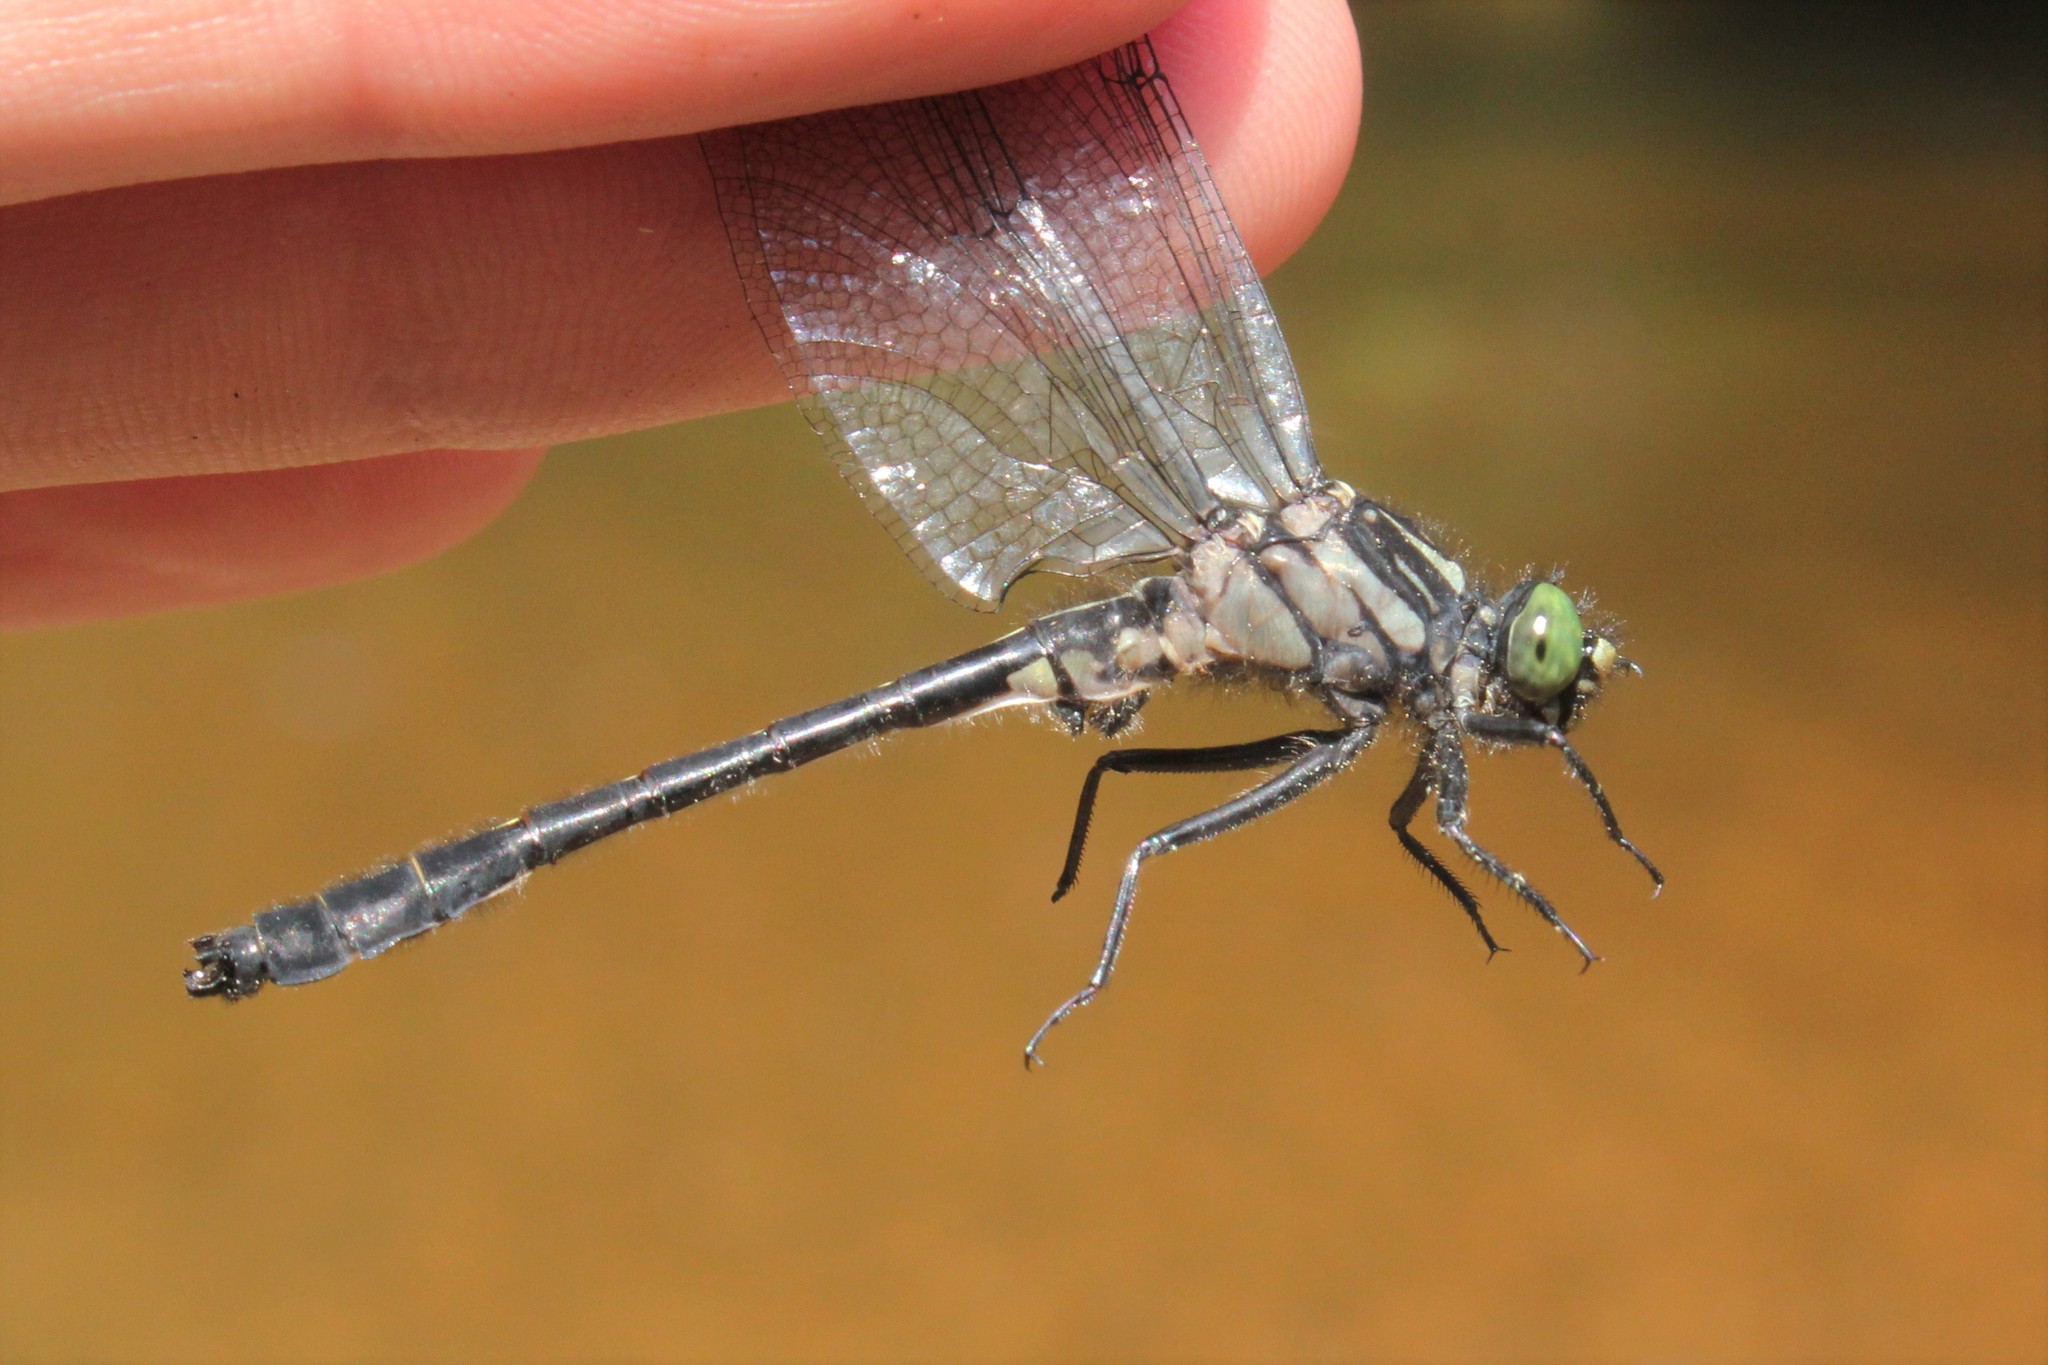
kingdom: Animalia
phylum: Arthropoda
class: Insecta
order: Odonata
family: Gomphidae
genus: Hylogomphus
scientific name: Hylogomphus adelphus
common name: Mustached clubtail
